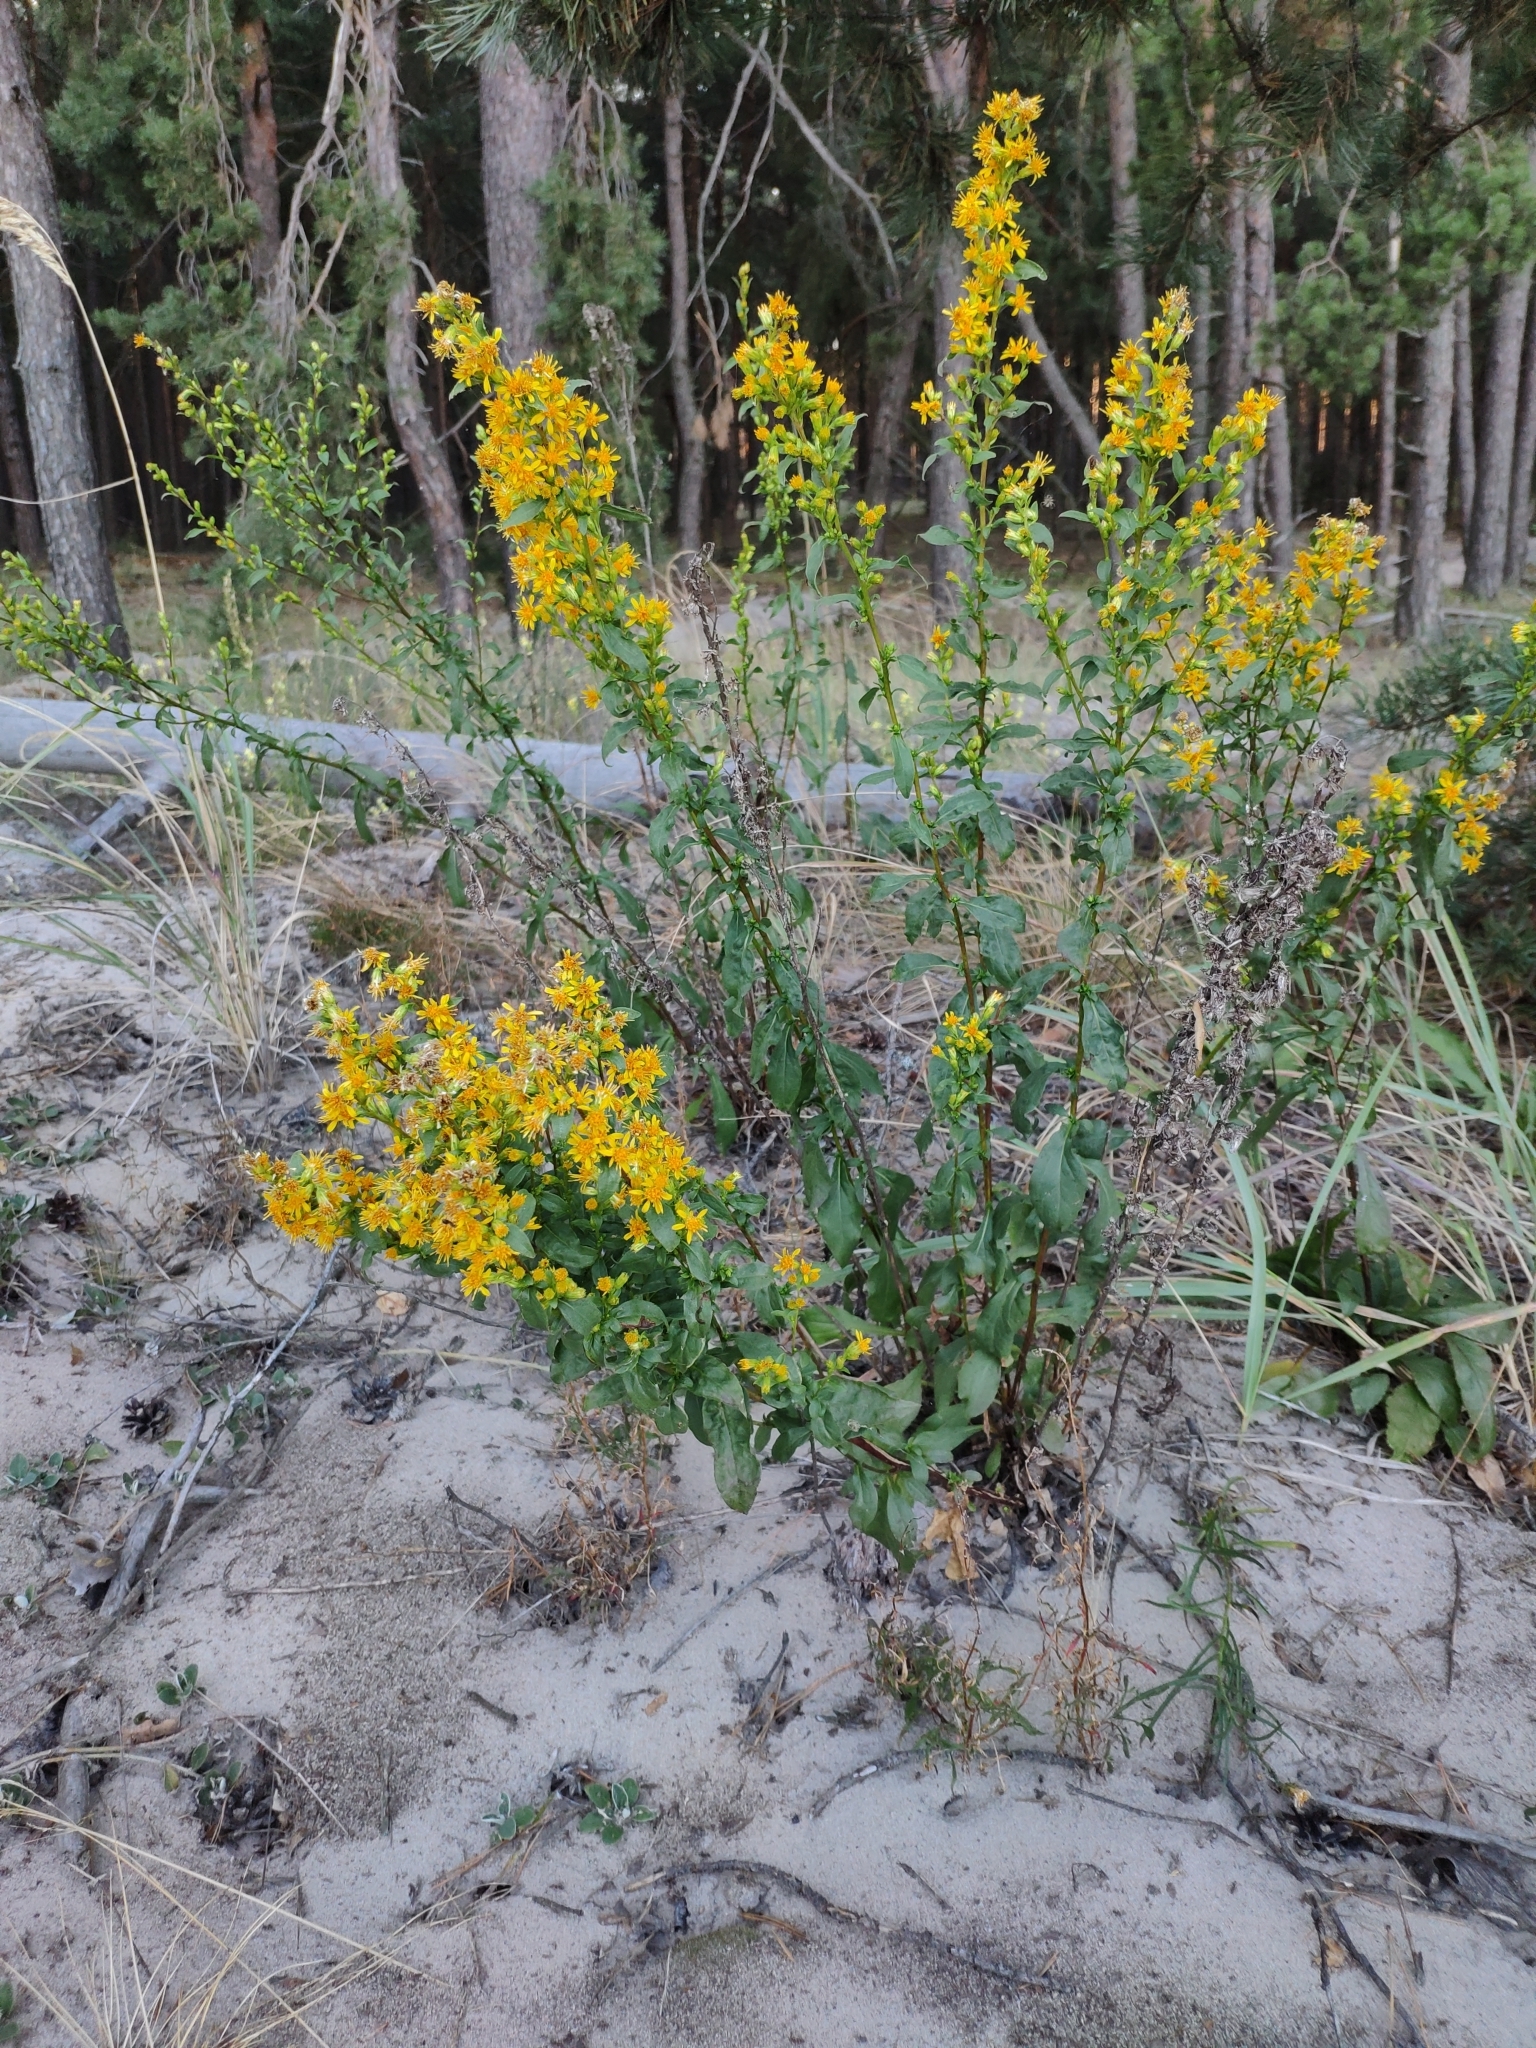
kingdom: Plantae
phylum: Tracheophyta
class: Magnoliopsida
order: Asterales
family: Asteraceae
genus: Solidago
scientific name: Solidago virgaurea
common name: Goldenrod
